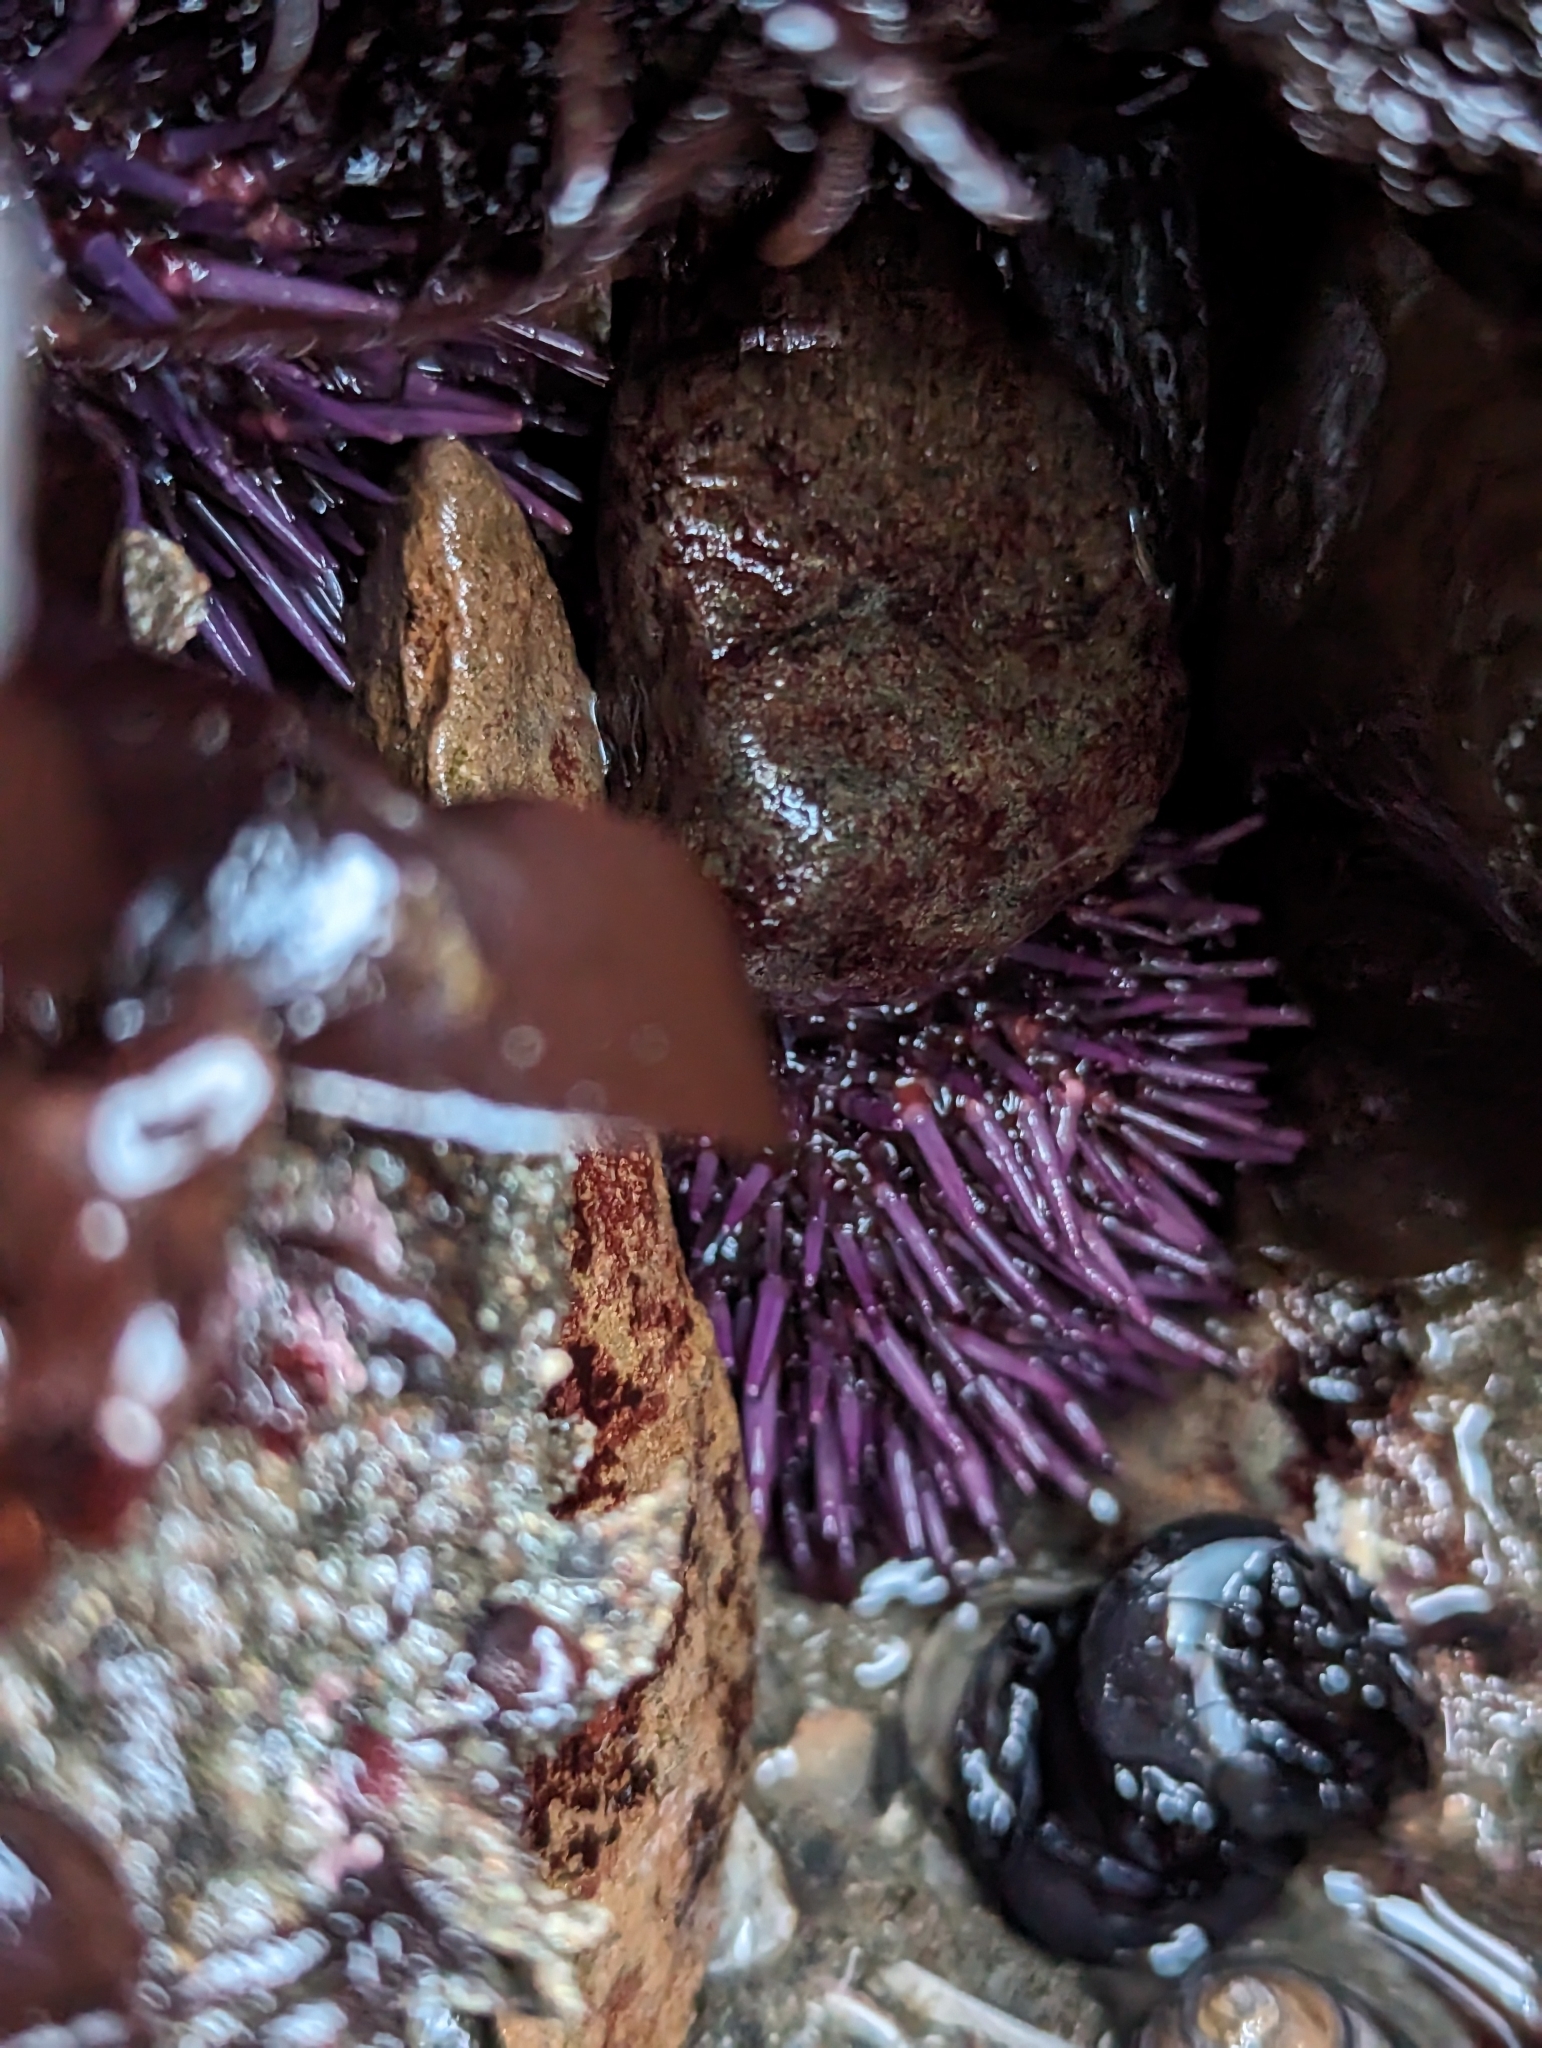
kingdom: Animalia
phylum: Echinodermata
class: Echinoidea
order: Camarodonta
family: Strongylocentrotidae
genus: Strongylocentrotus
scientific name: Strongylocentrotus purpuratus
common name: Purple sea urchin
